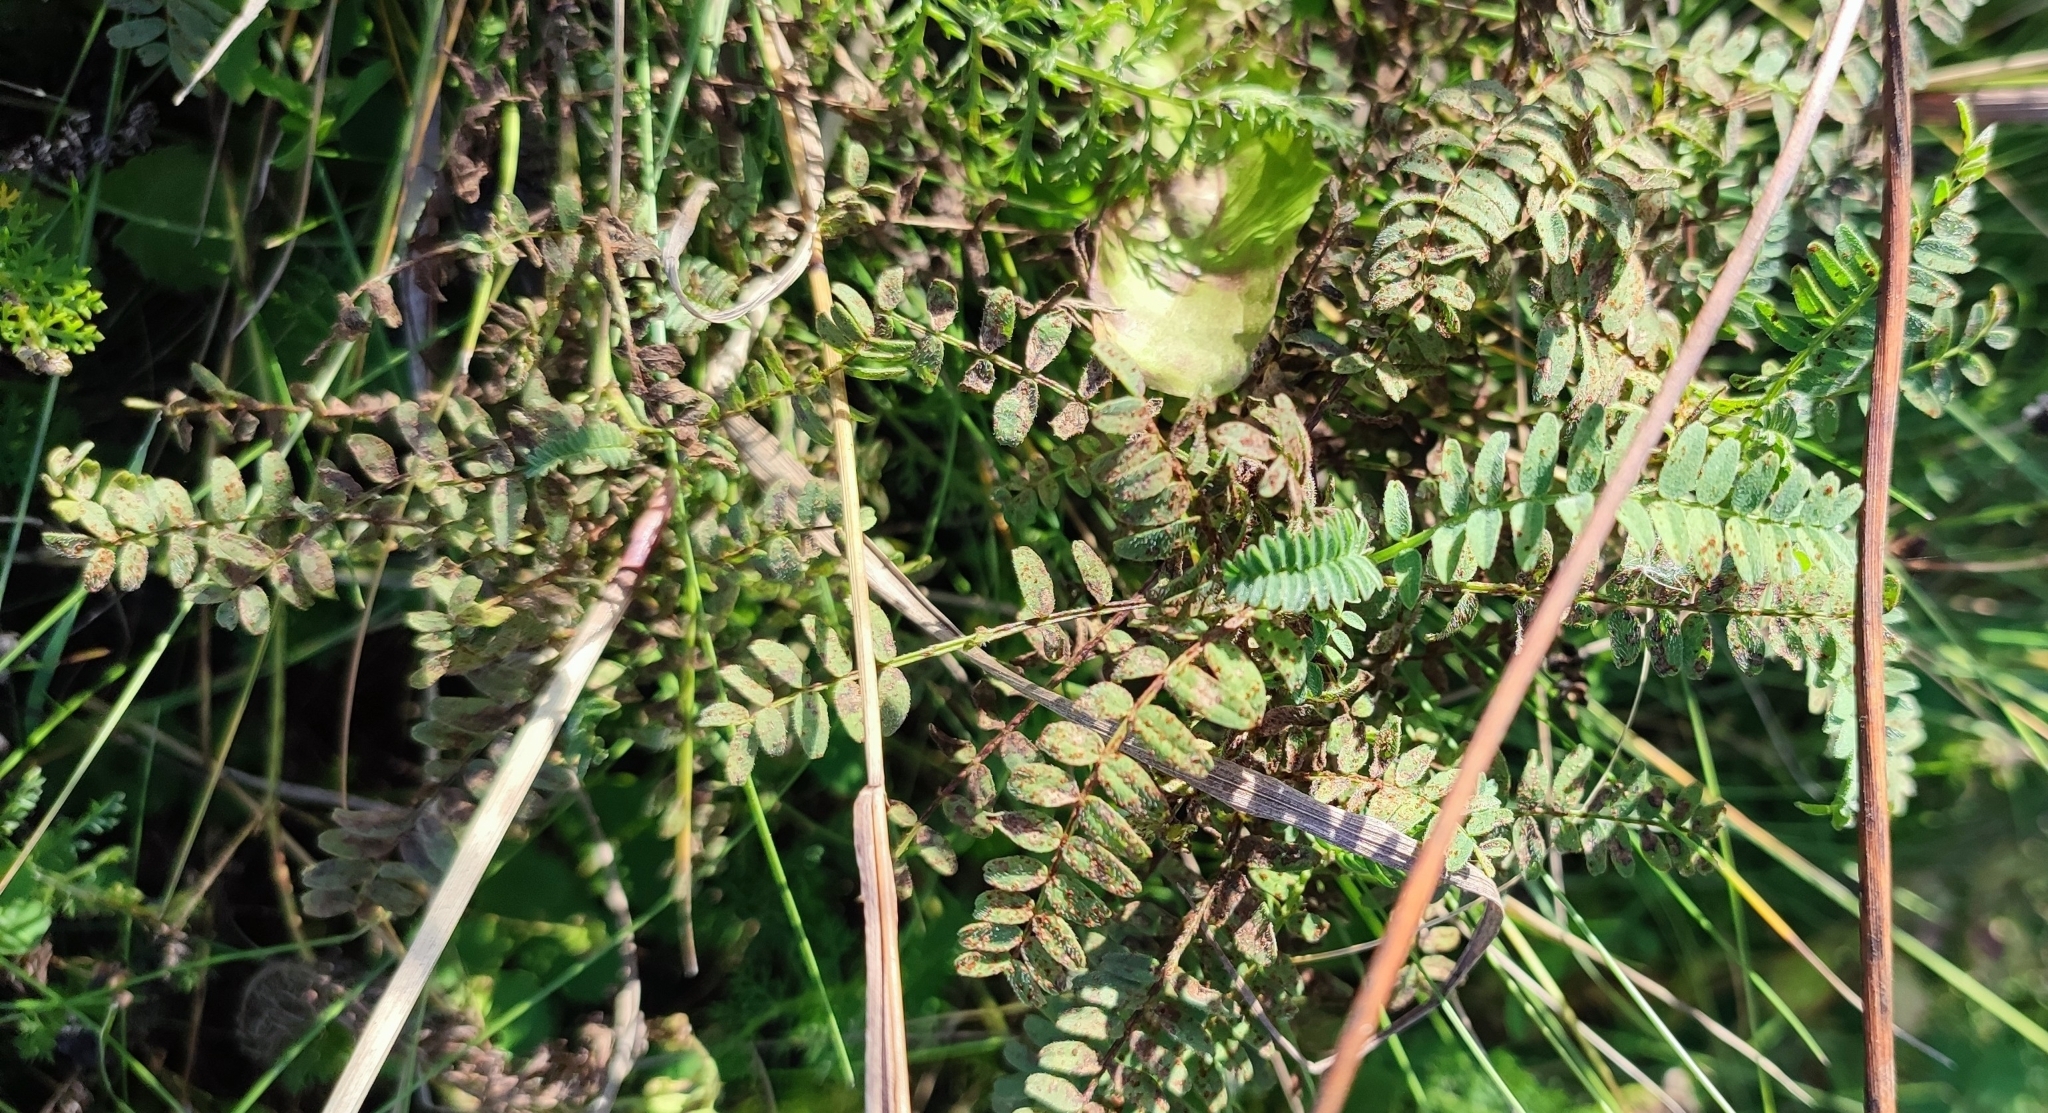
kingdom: Plantae
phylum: Tracheophyta
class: Magnoliopsida
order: Fabales
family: Fabaceae
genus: Astragalus
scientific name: Astragalus danicus
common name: Purple milk-vetch
